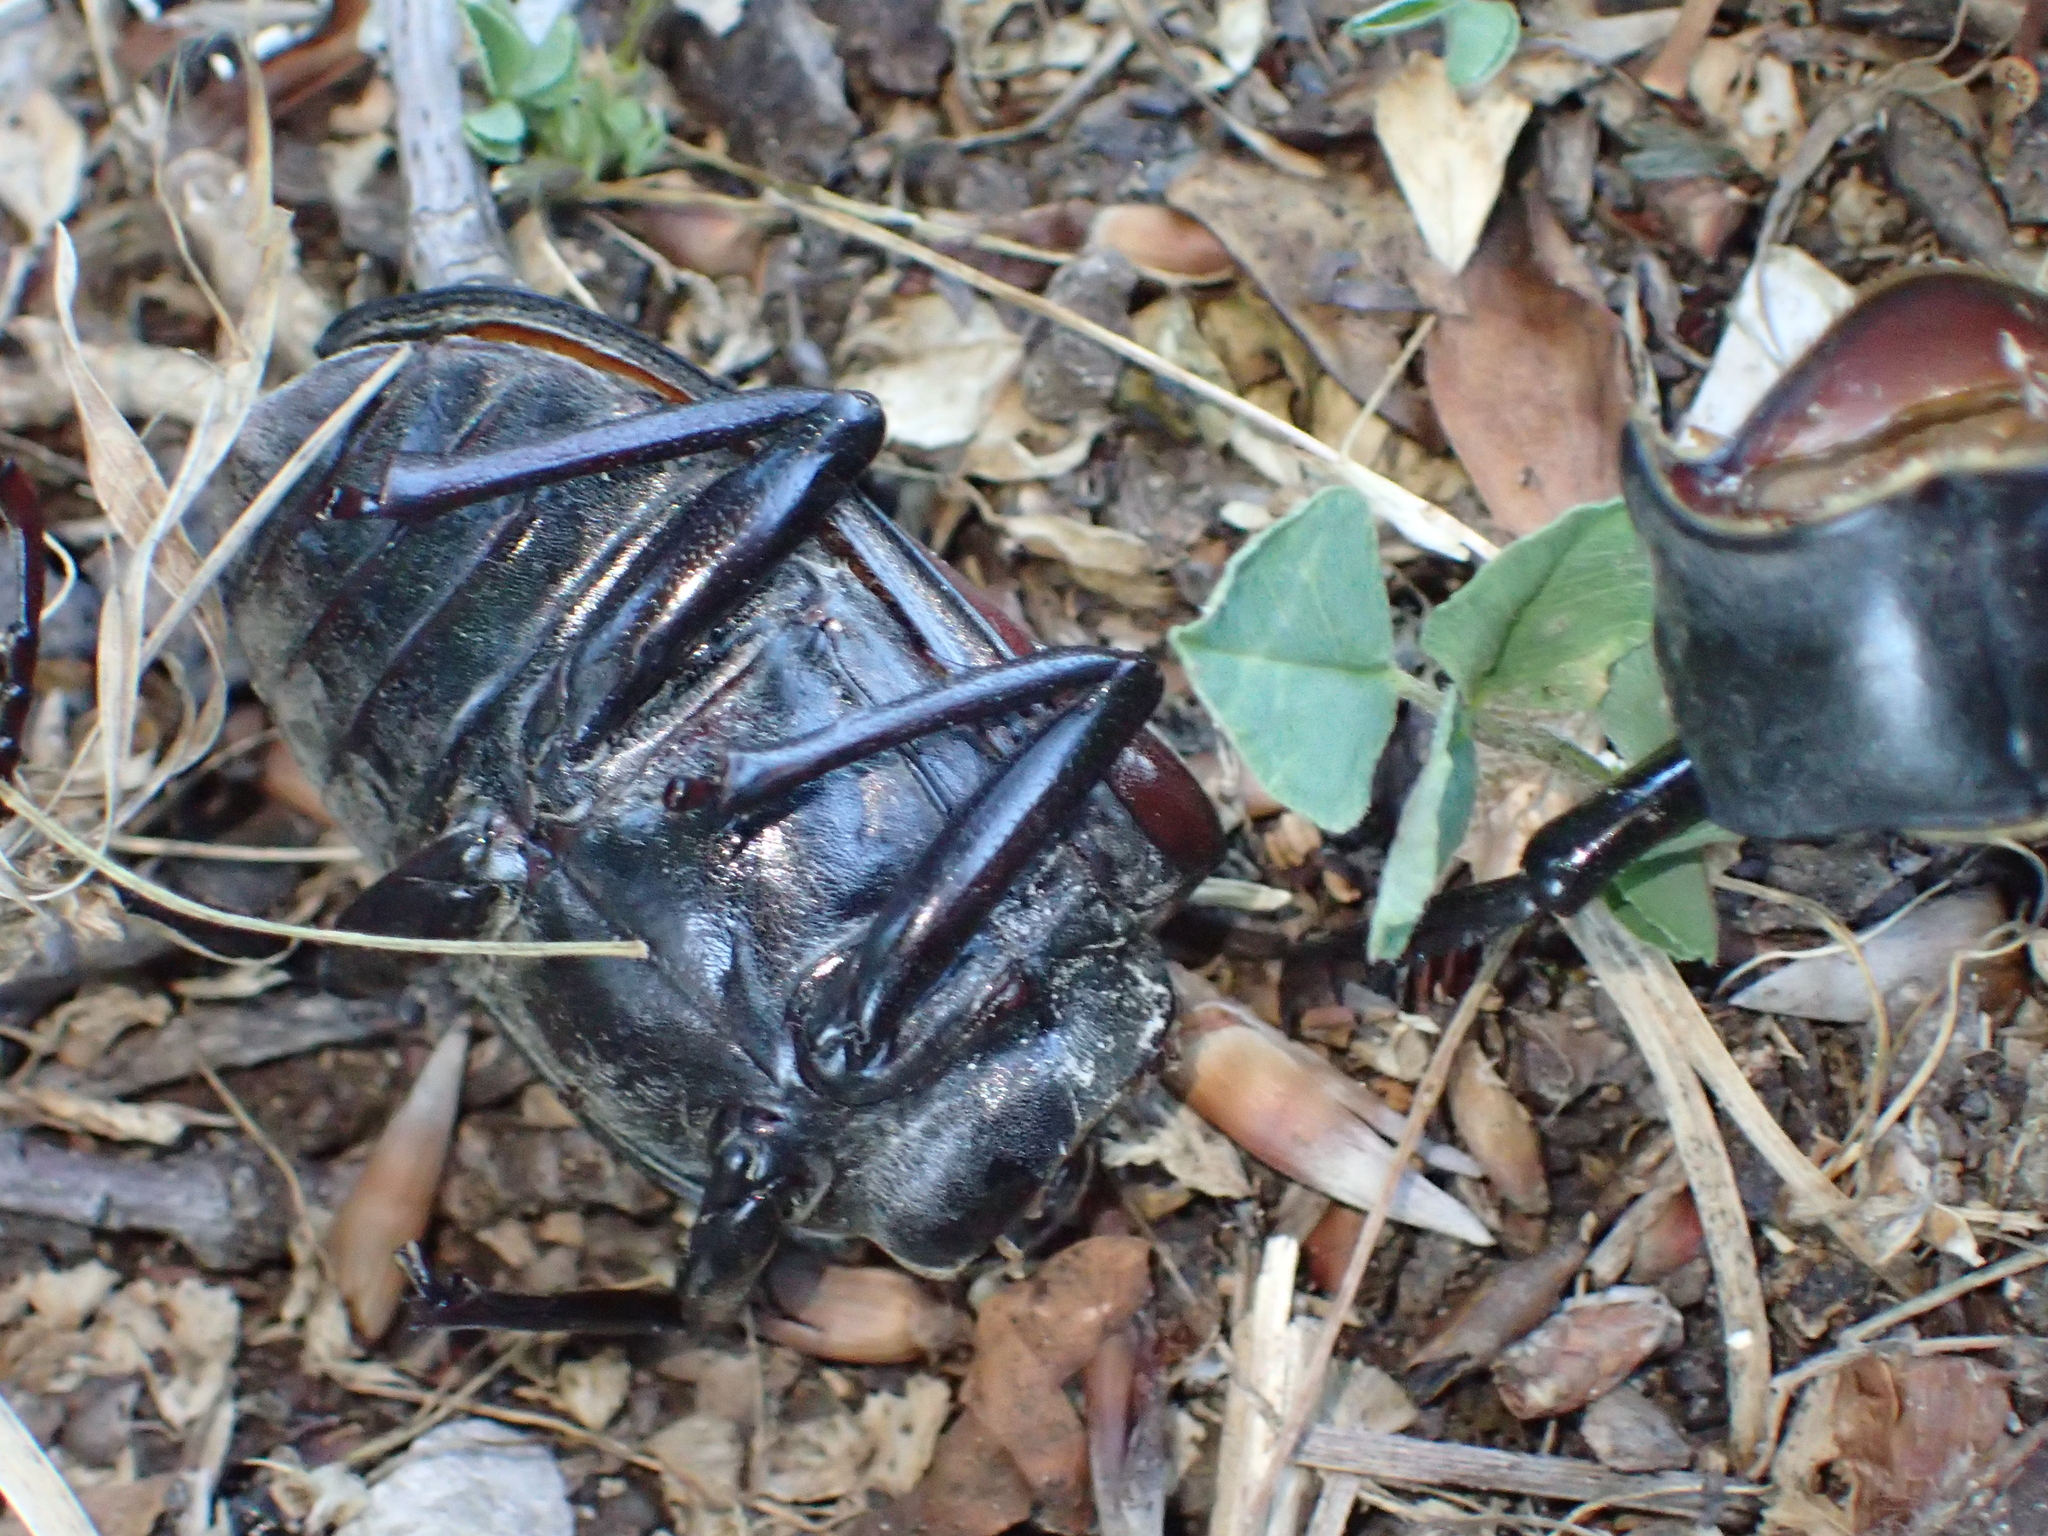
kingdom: Animalia
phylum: Arthropoda
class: Insecta
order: Coleoptera
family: Lucanidae
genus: Lucanus
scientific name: Lucanus cervus
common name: Stag beetle
